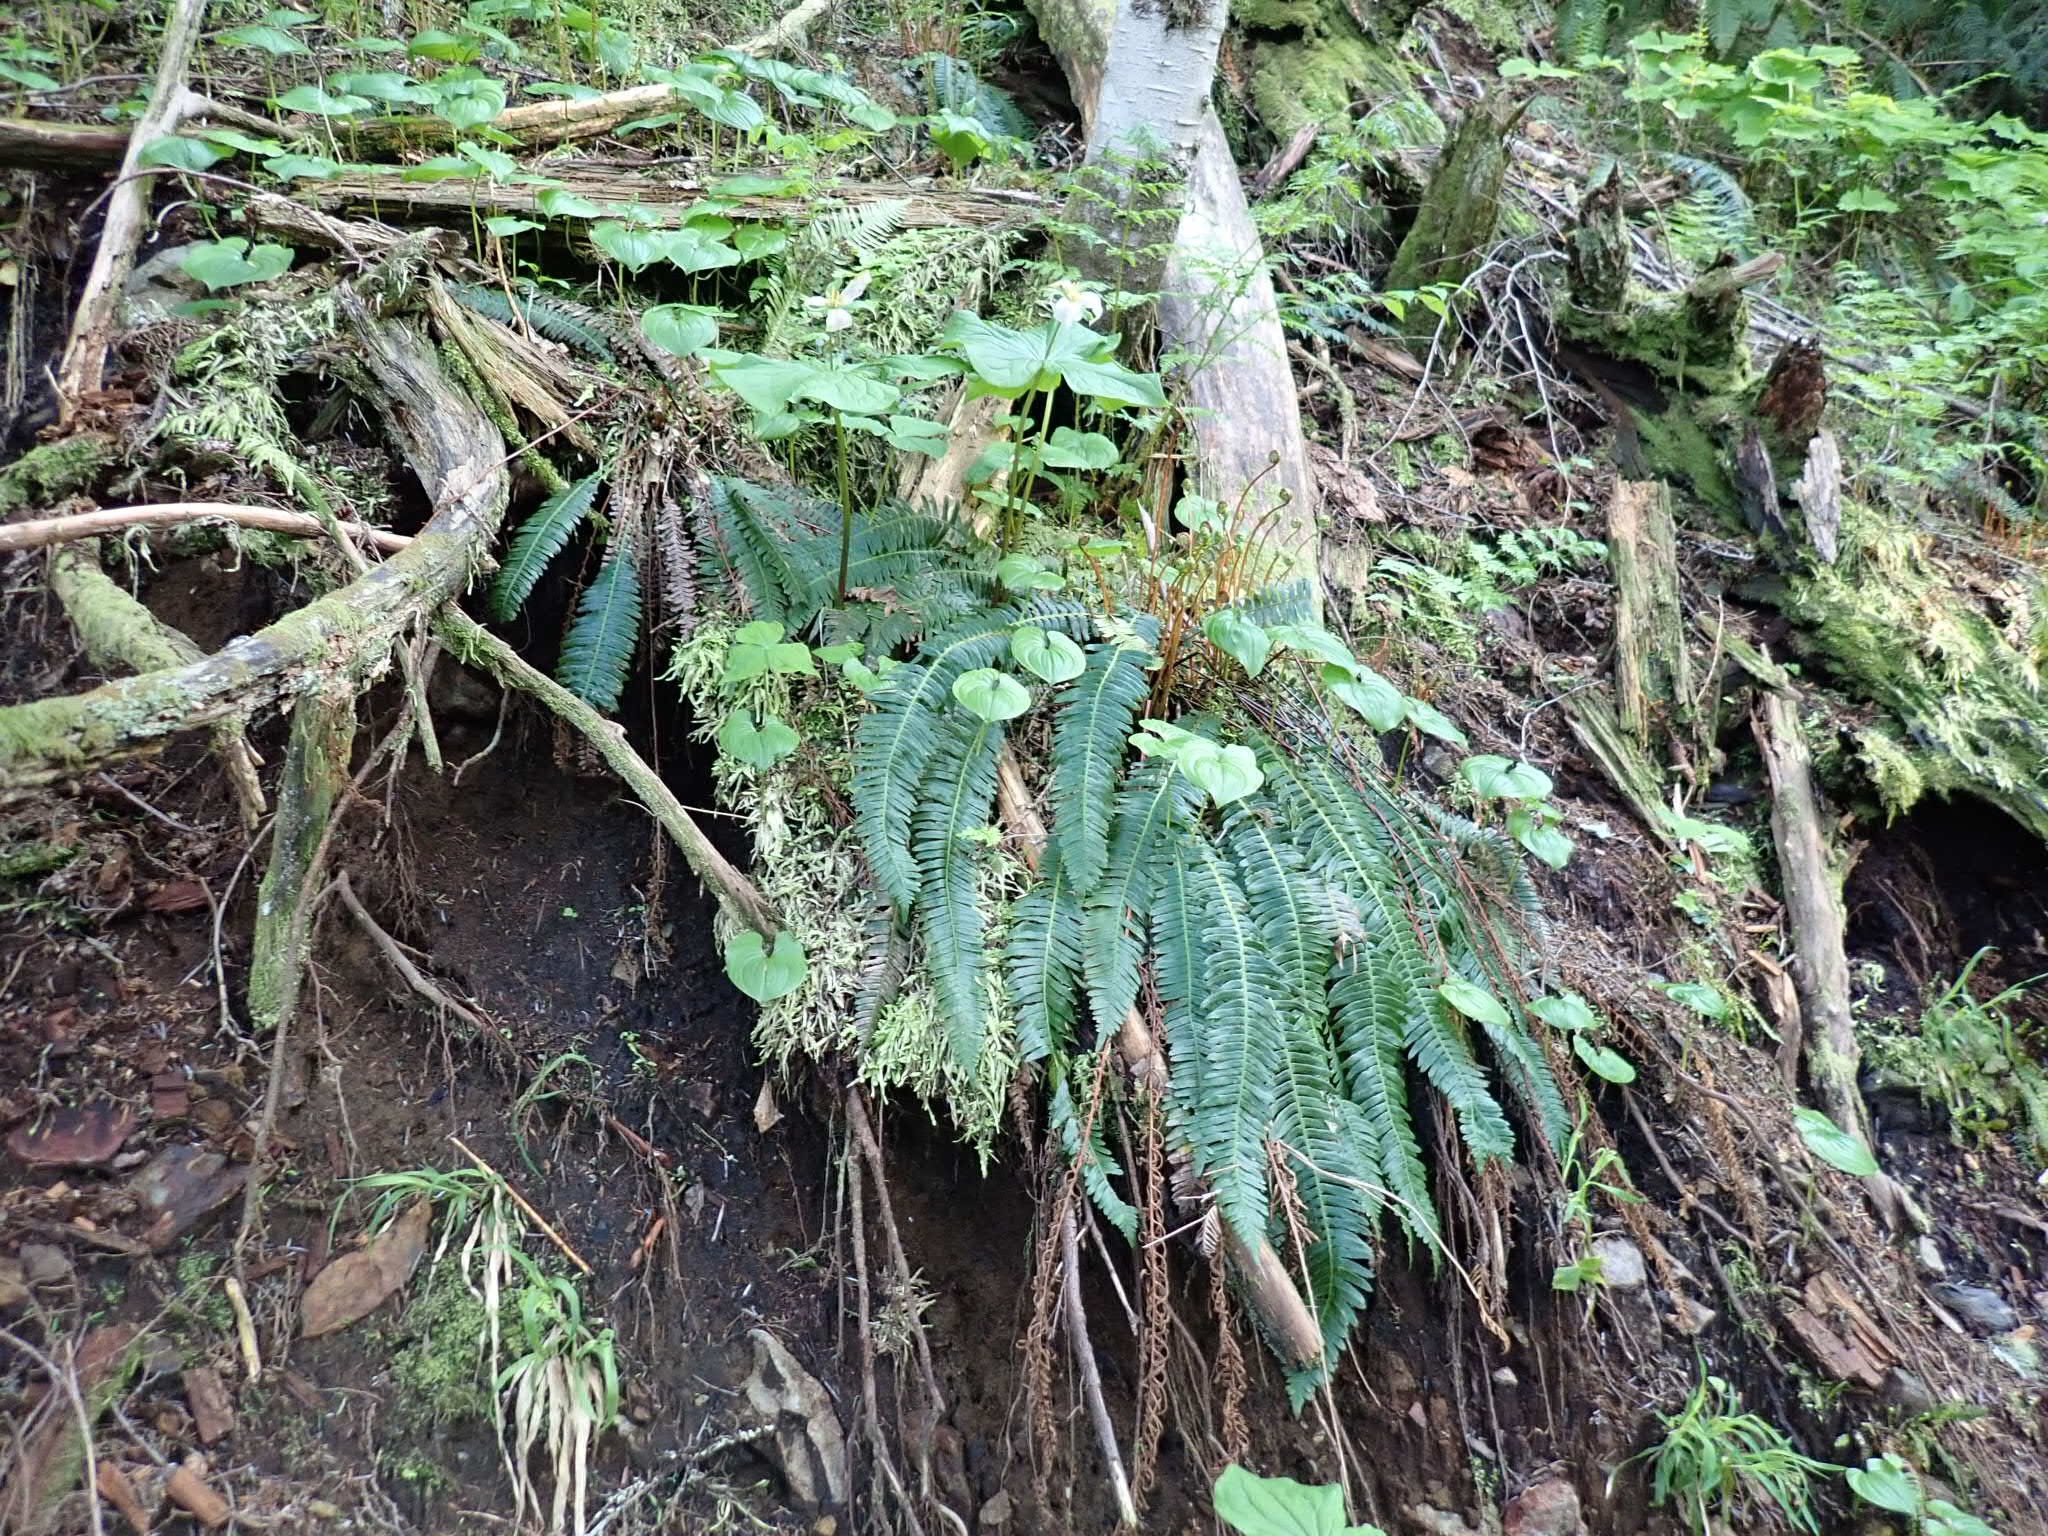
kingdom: Plantae
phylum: Tracheophyta
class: Liliopsida
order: Liliales
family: Melanthiaceae
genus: Trillium
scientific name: Trillium ovatum
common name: Pacific trillium
